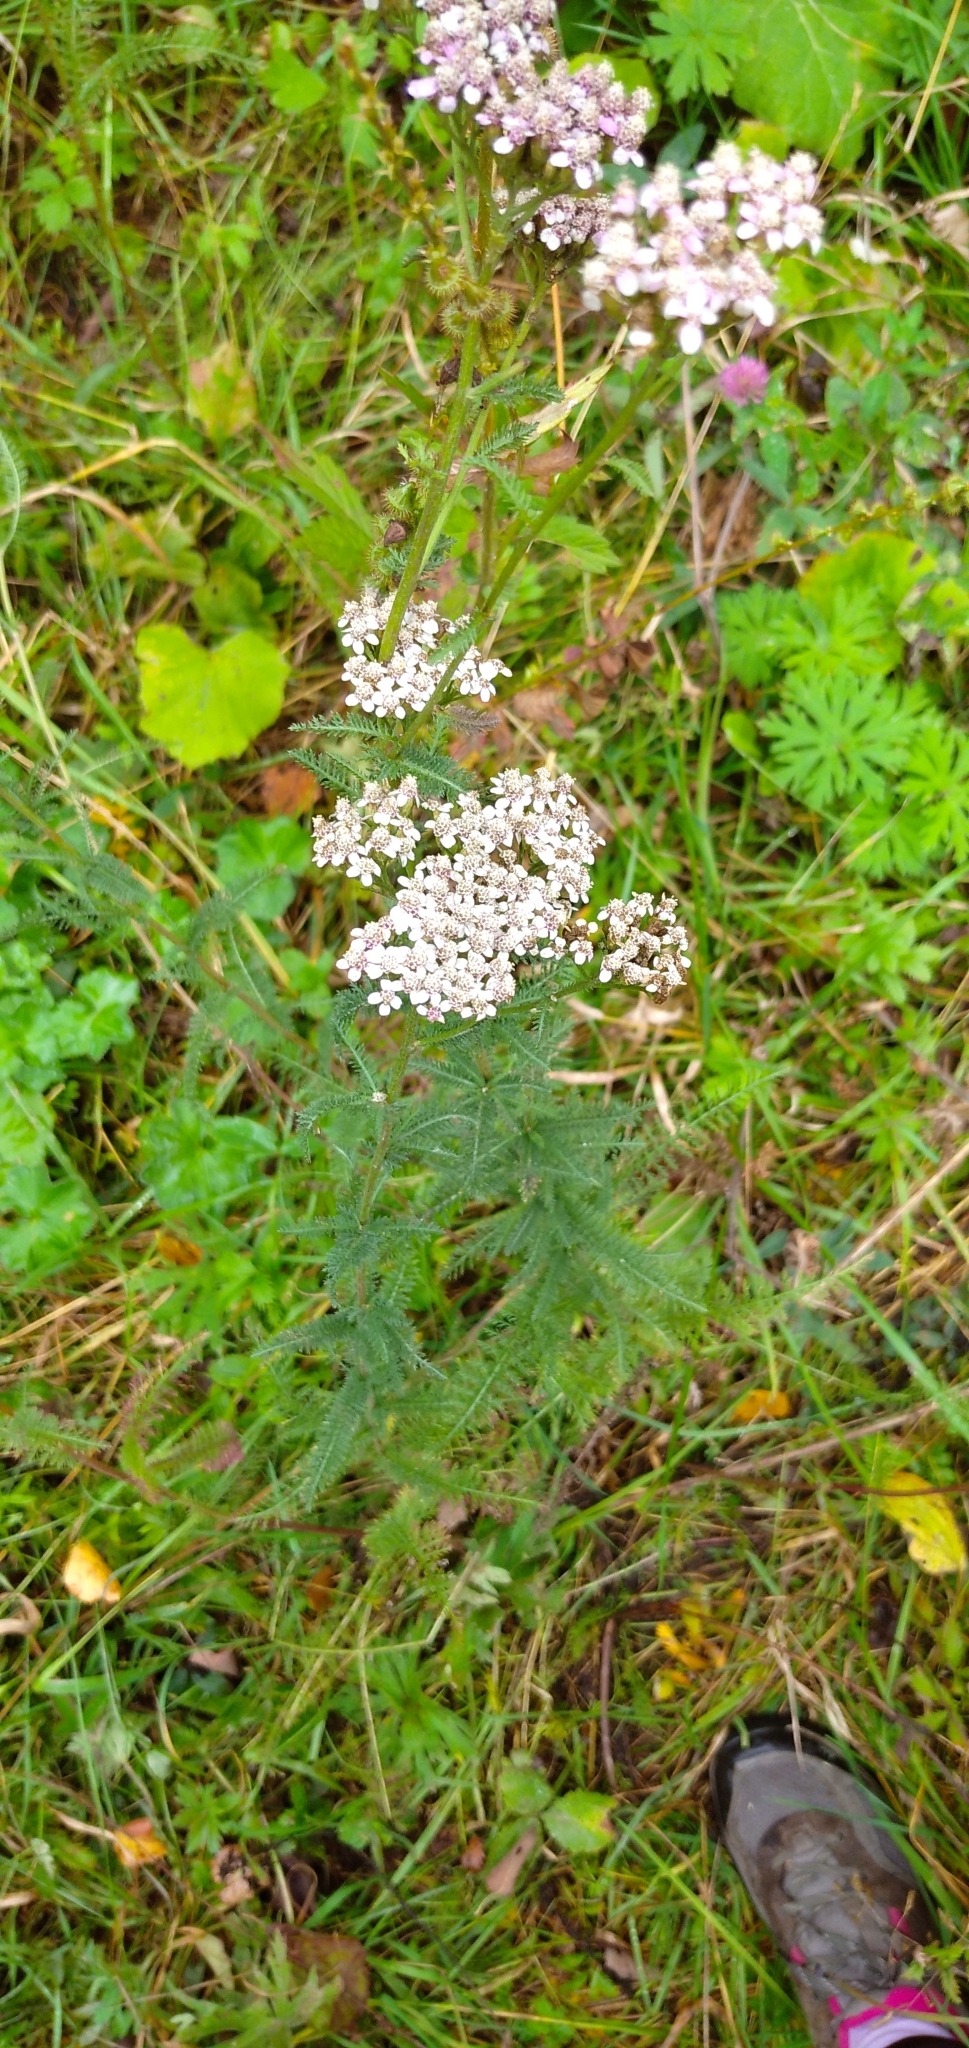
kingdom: Plantae
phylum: Tracheophyta
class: Magnoliopsida
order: Asterales
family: Asteraceae
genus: Achillea
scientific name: Achillea millefolium
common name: Yarrow
